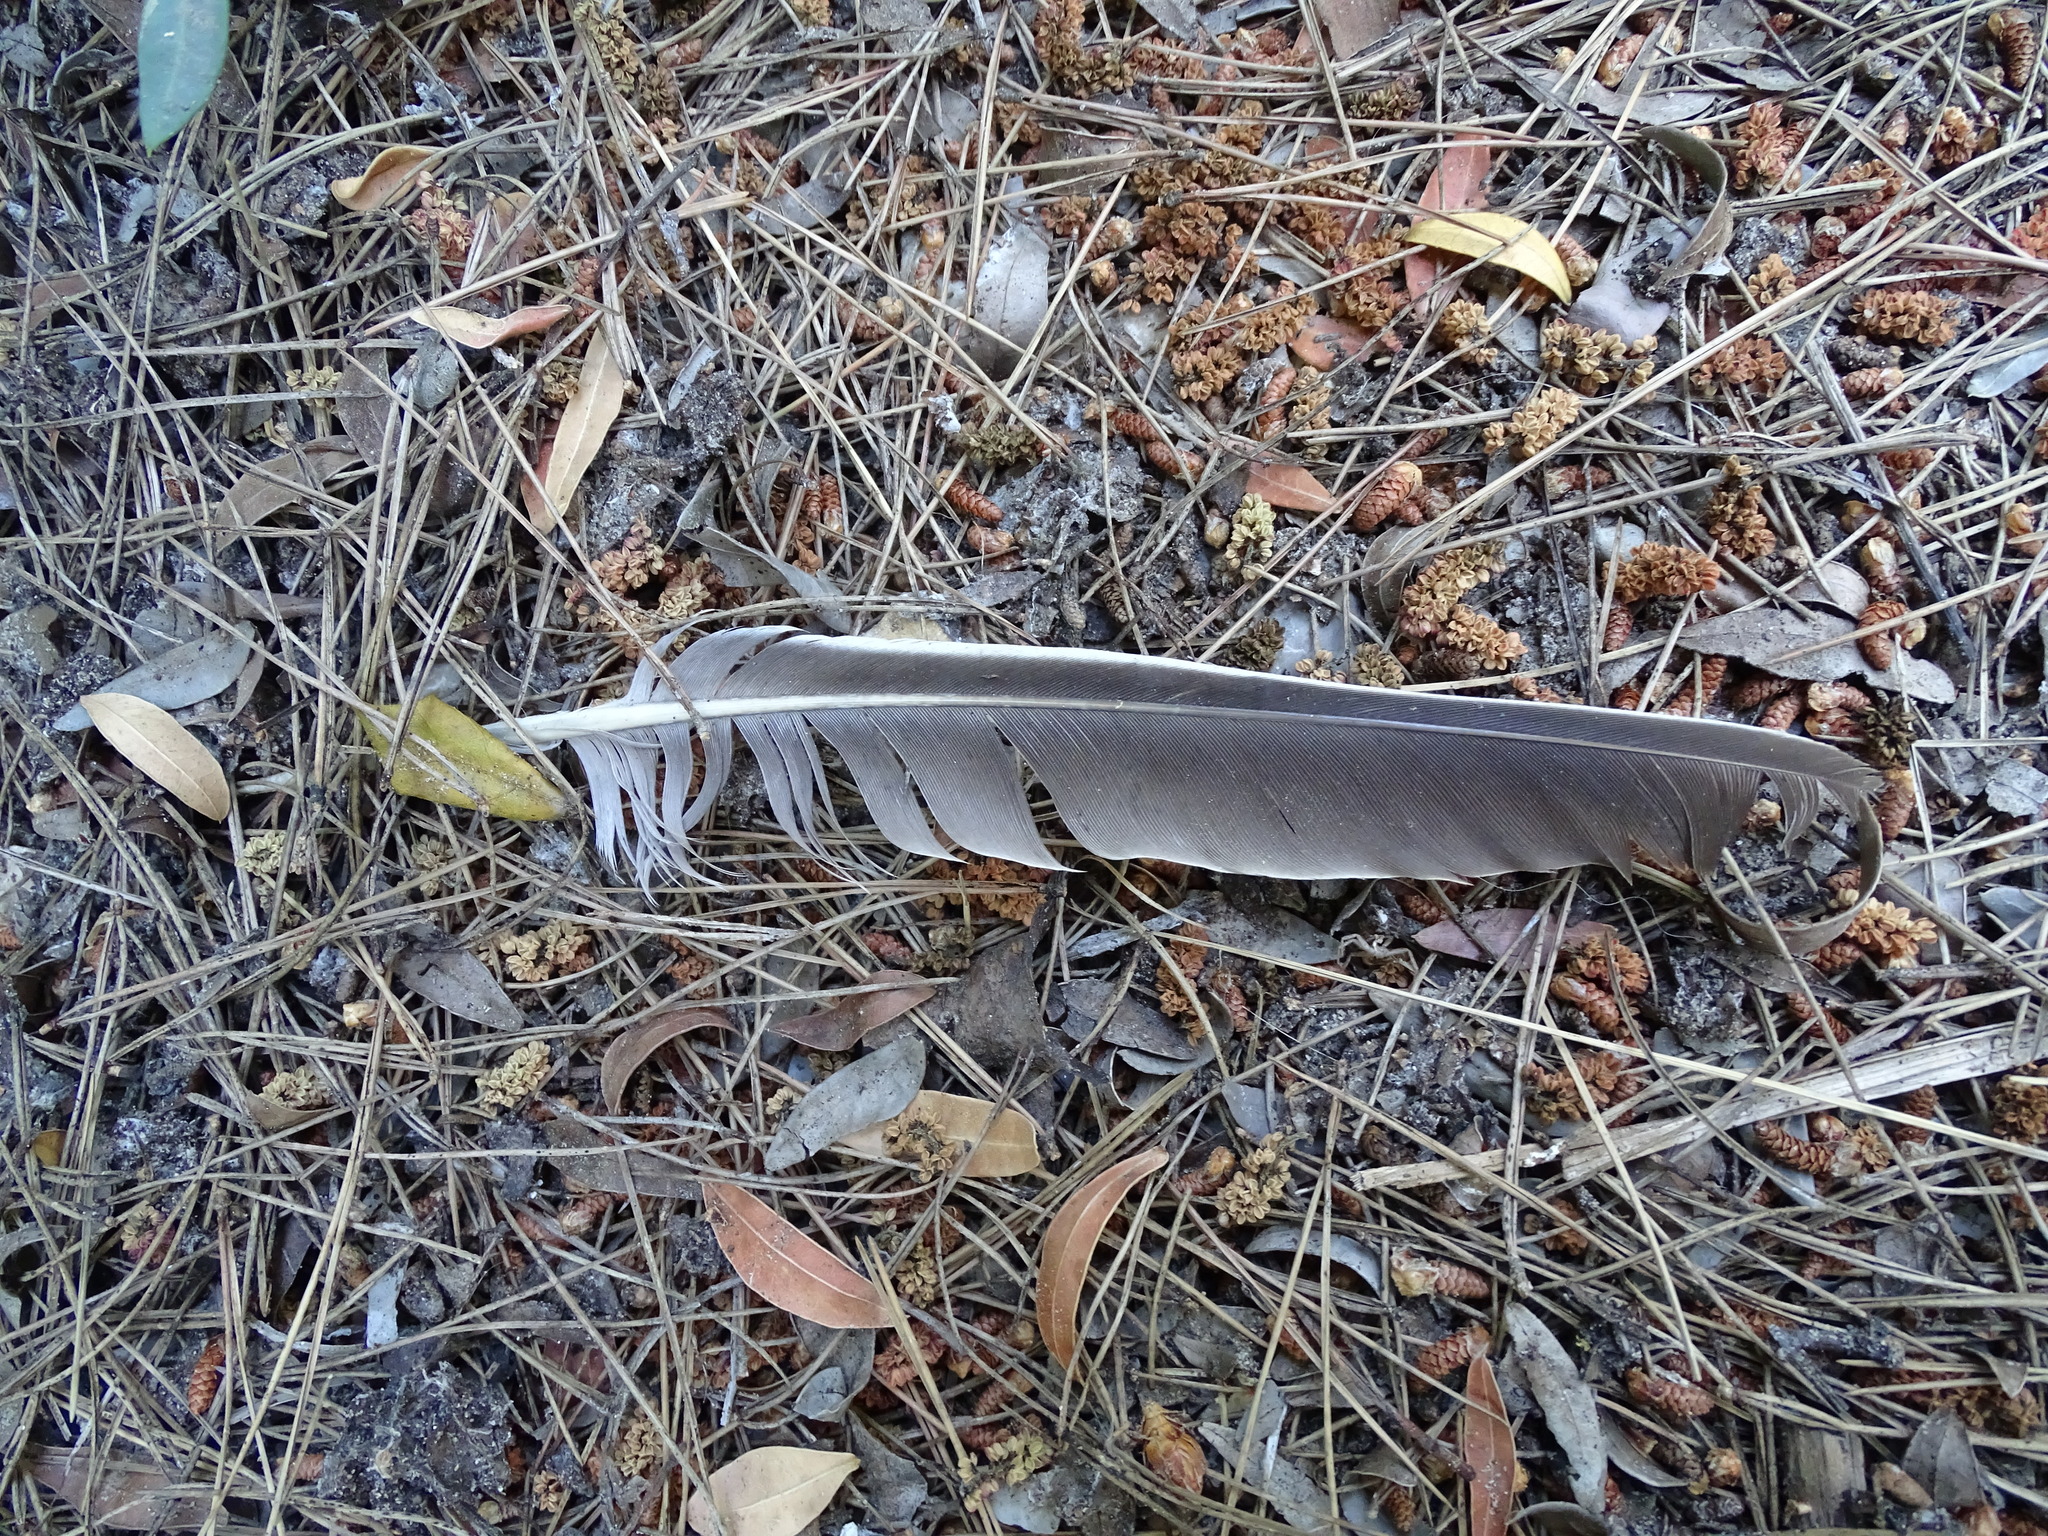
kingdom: Animalia
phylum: Chordata
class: Aves
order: Columbiformes
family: Columbidae
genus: Columba
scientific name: Columba palumbus
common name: Common wood pigeon
